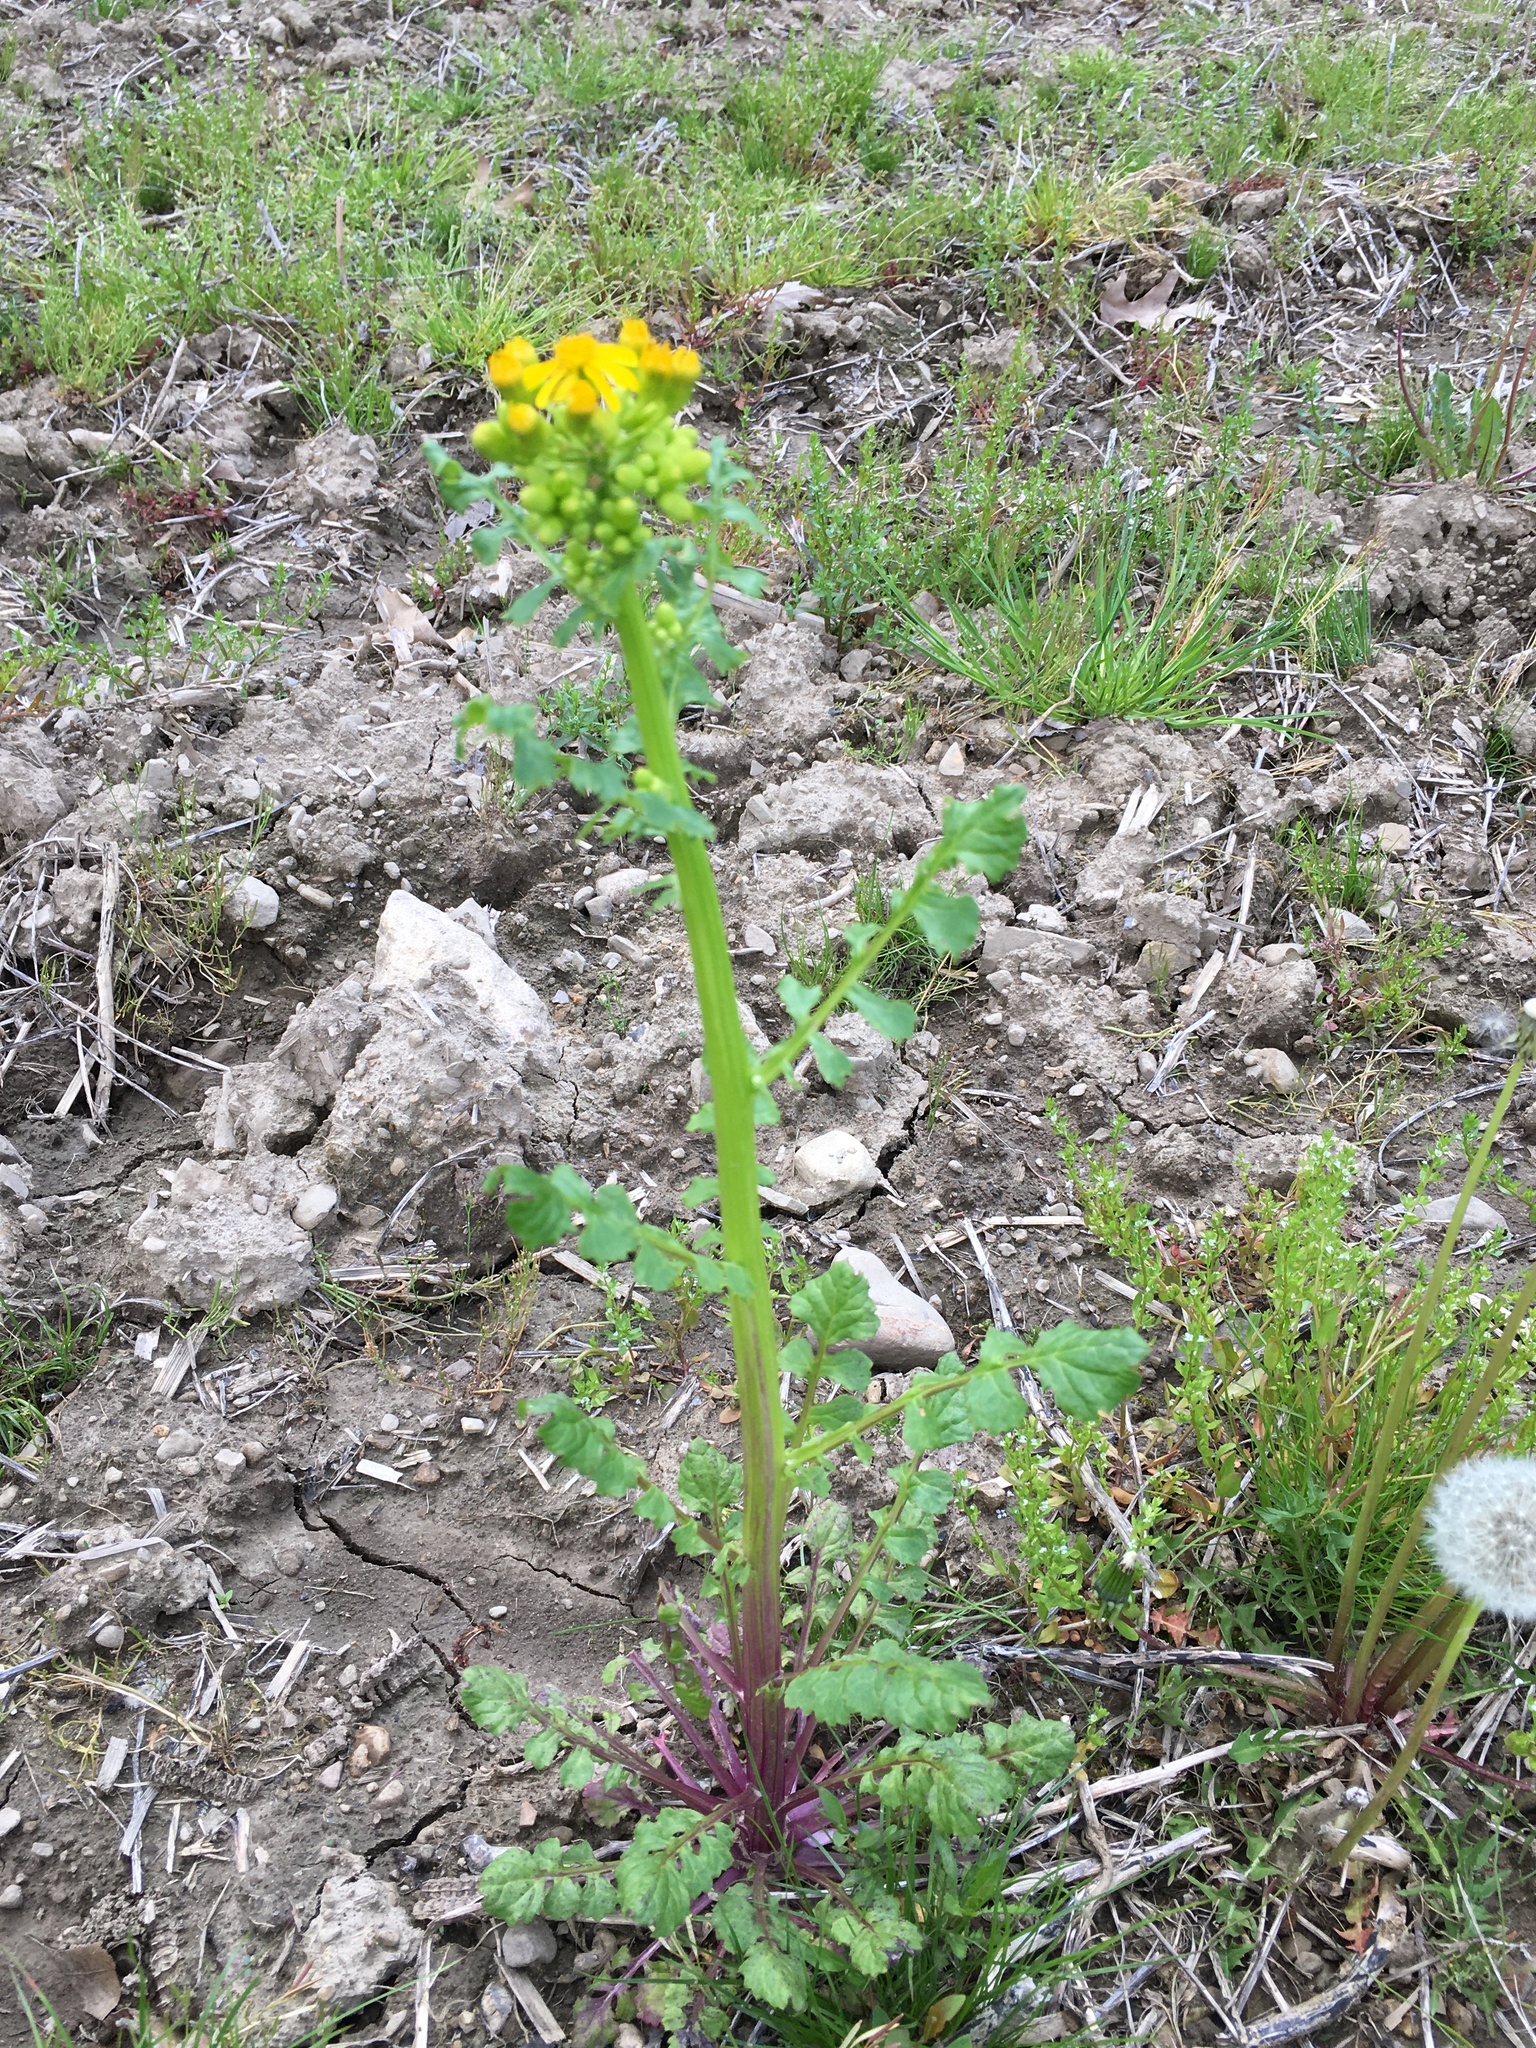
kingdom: Plantae
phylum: Tracheophyta
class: Magnoliopsida
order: Asterales
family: Asteraceae
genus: Packera
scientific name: Packera glabella
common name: Butterweed
